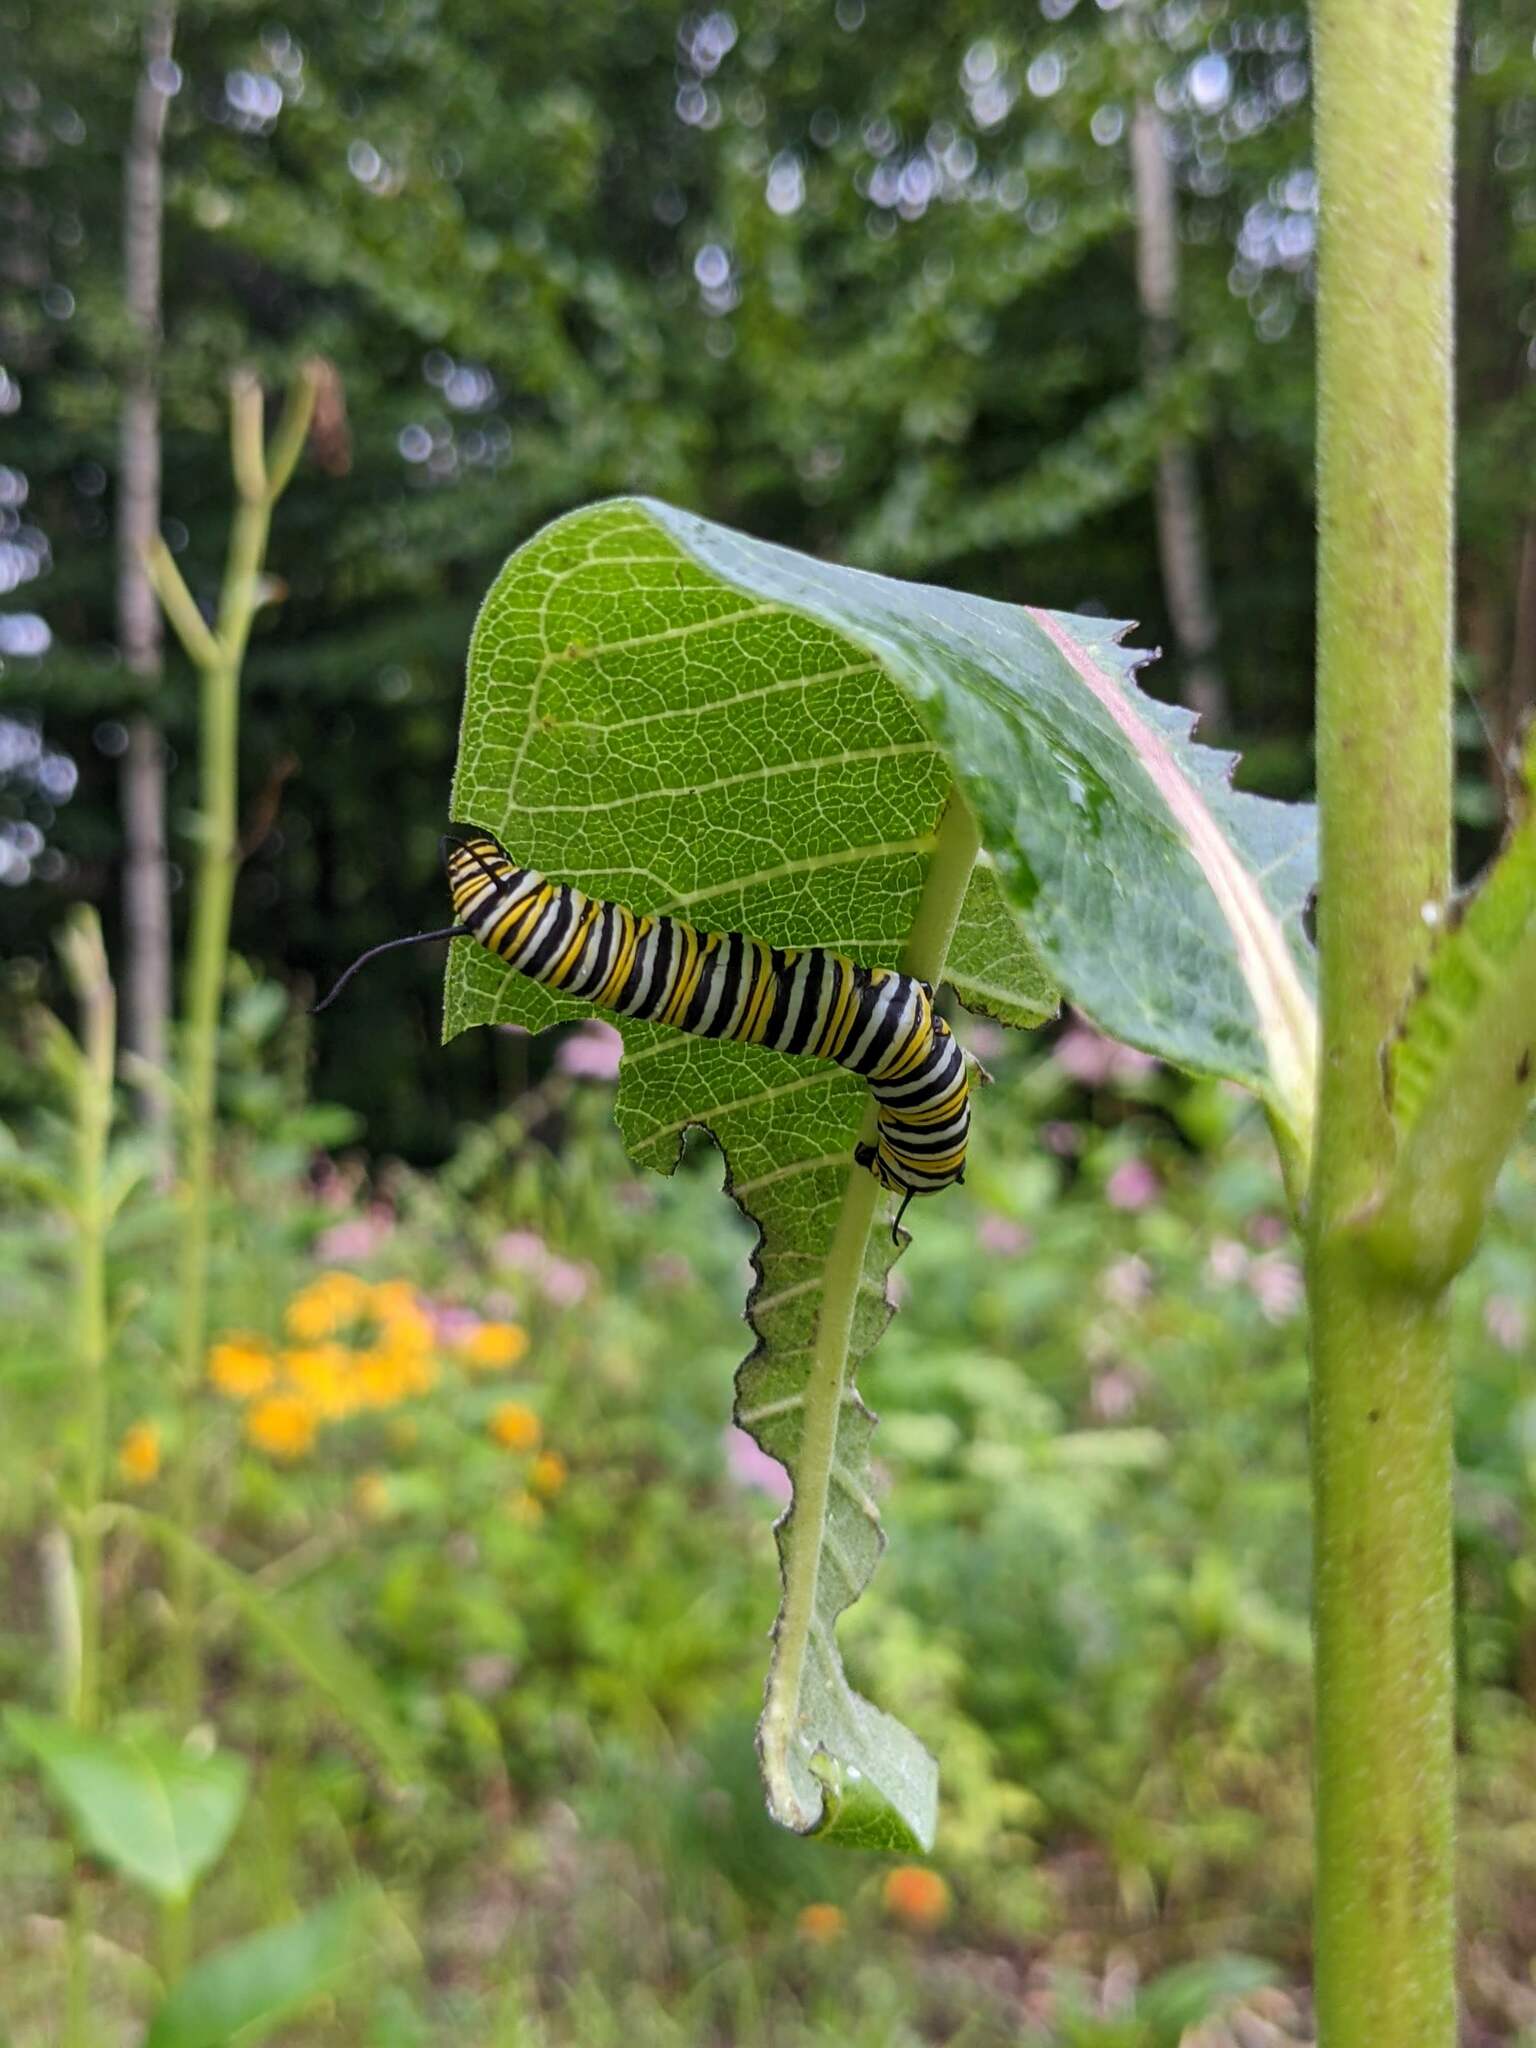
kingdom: Animalia
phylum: Arthropoda
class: Insecta
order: Lepidoptera
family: Nymphalidae
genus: Danaus
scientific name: Danaus plexippus
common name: Monarch
